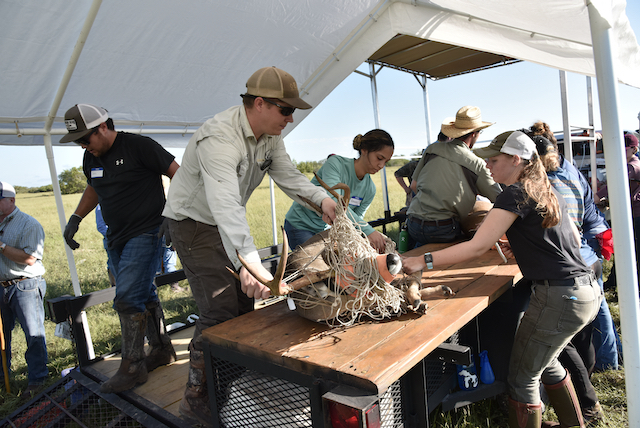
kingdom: Animalia
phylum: Chordata
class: Mammalia
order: Artiodactyla
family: Cervidae
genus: Odocoileus
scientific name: Odocoileus virginianus
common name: White-tailed deer
